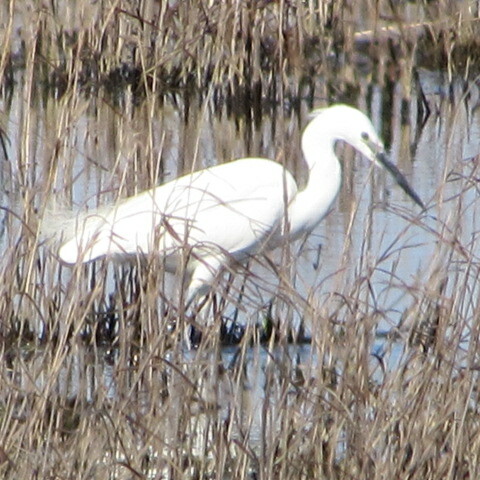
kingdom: Animalia
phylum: Chordata
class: Aves
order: Pelecaniformes
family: Ardeidae
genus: Egretta
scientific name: Egretta garzetta
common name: Little egret
